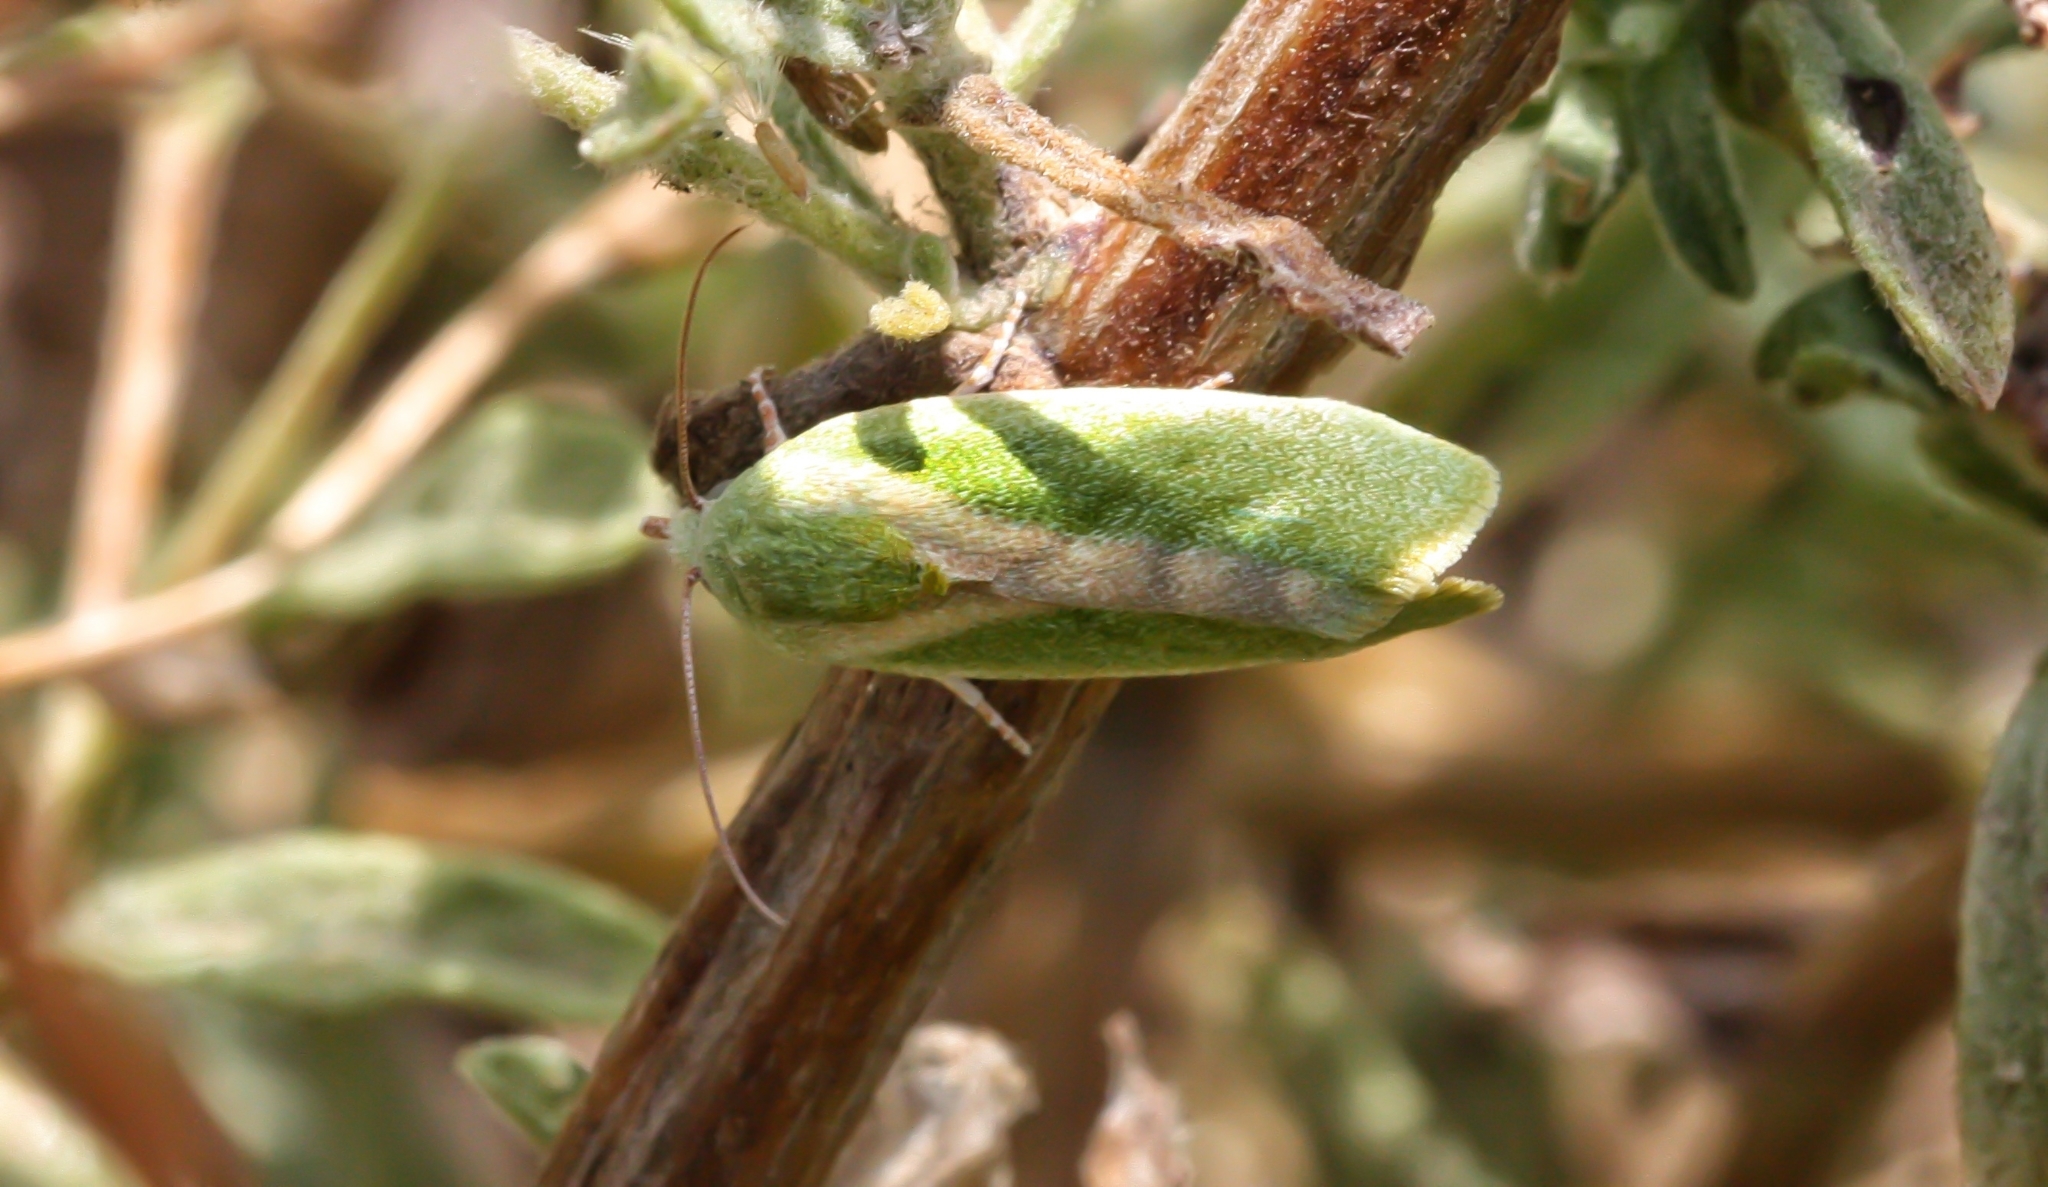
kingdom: Animalia
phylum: Arthropoda
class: Insecta
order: Lepidoptera
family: Nolidae
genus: Earias
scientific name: Earias insulana
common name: Egyptian bollworm
